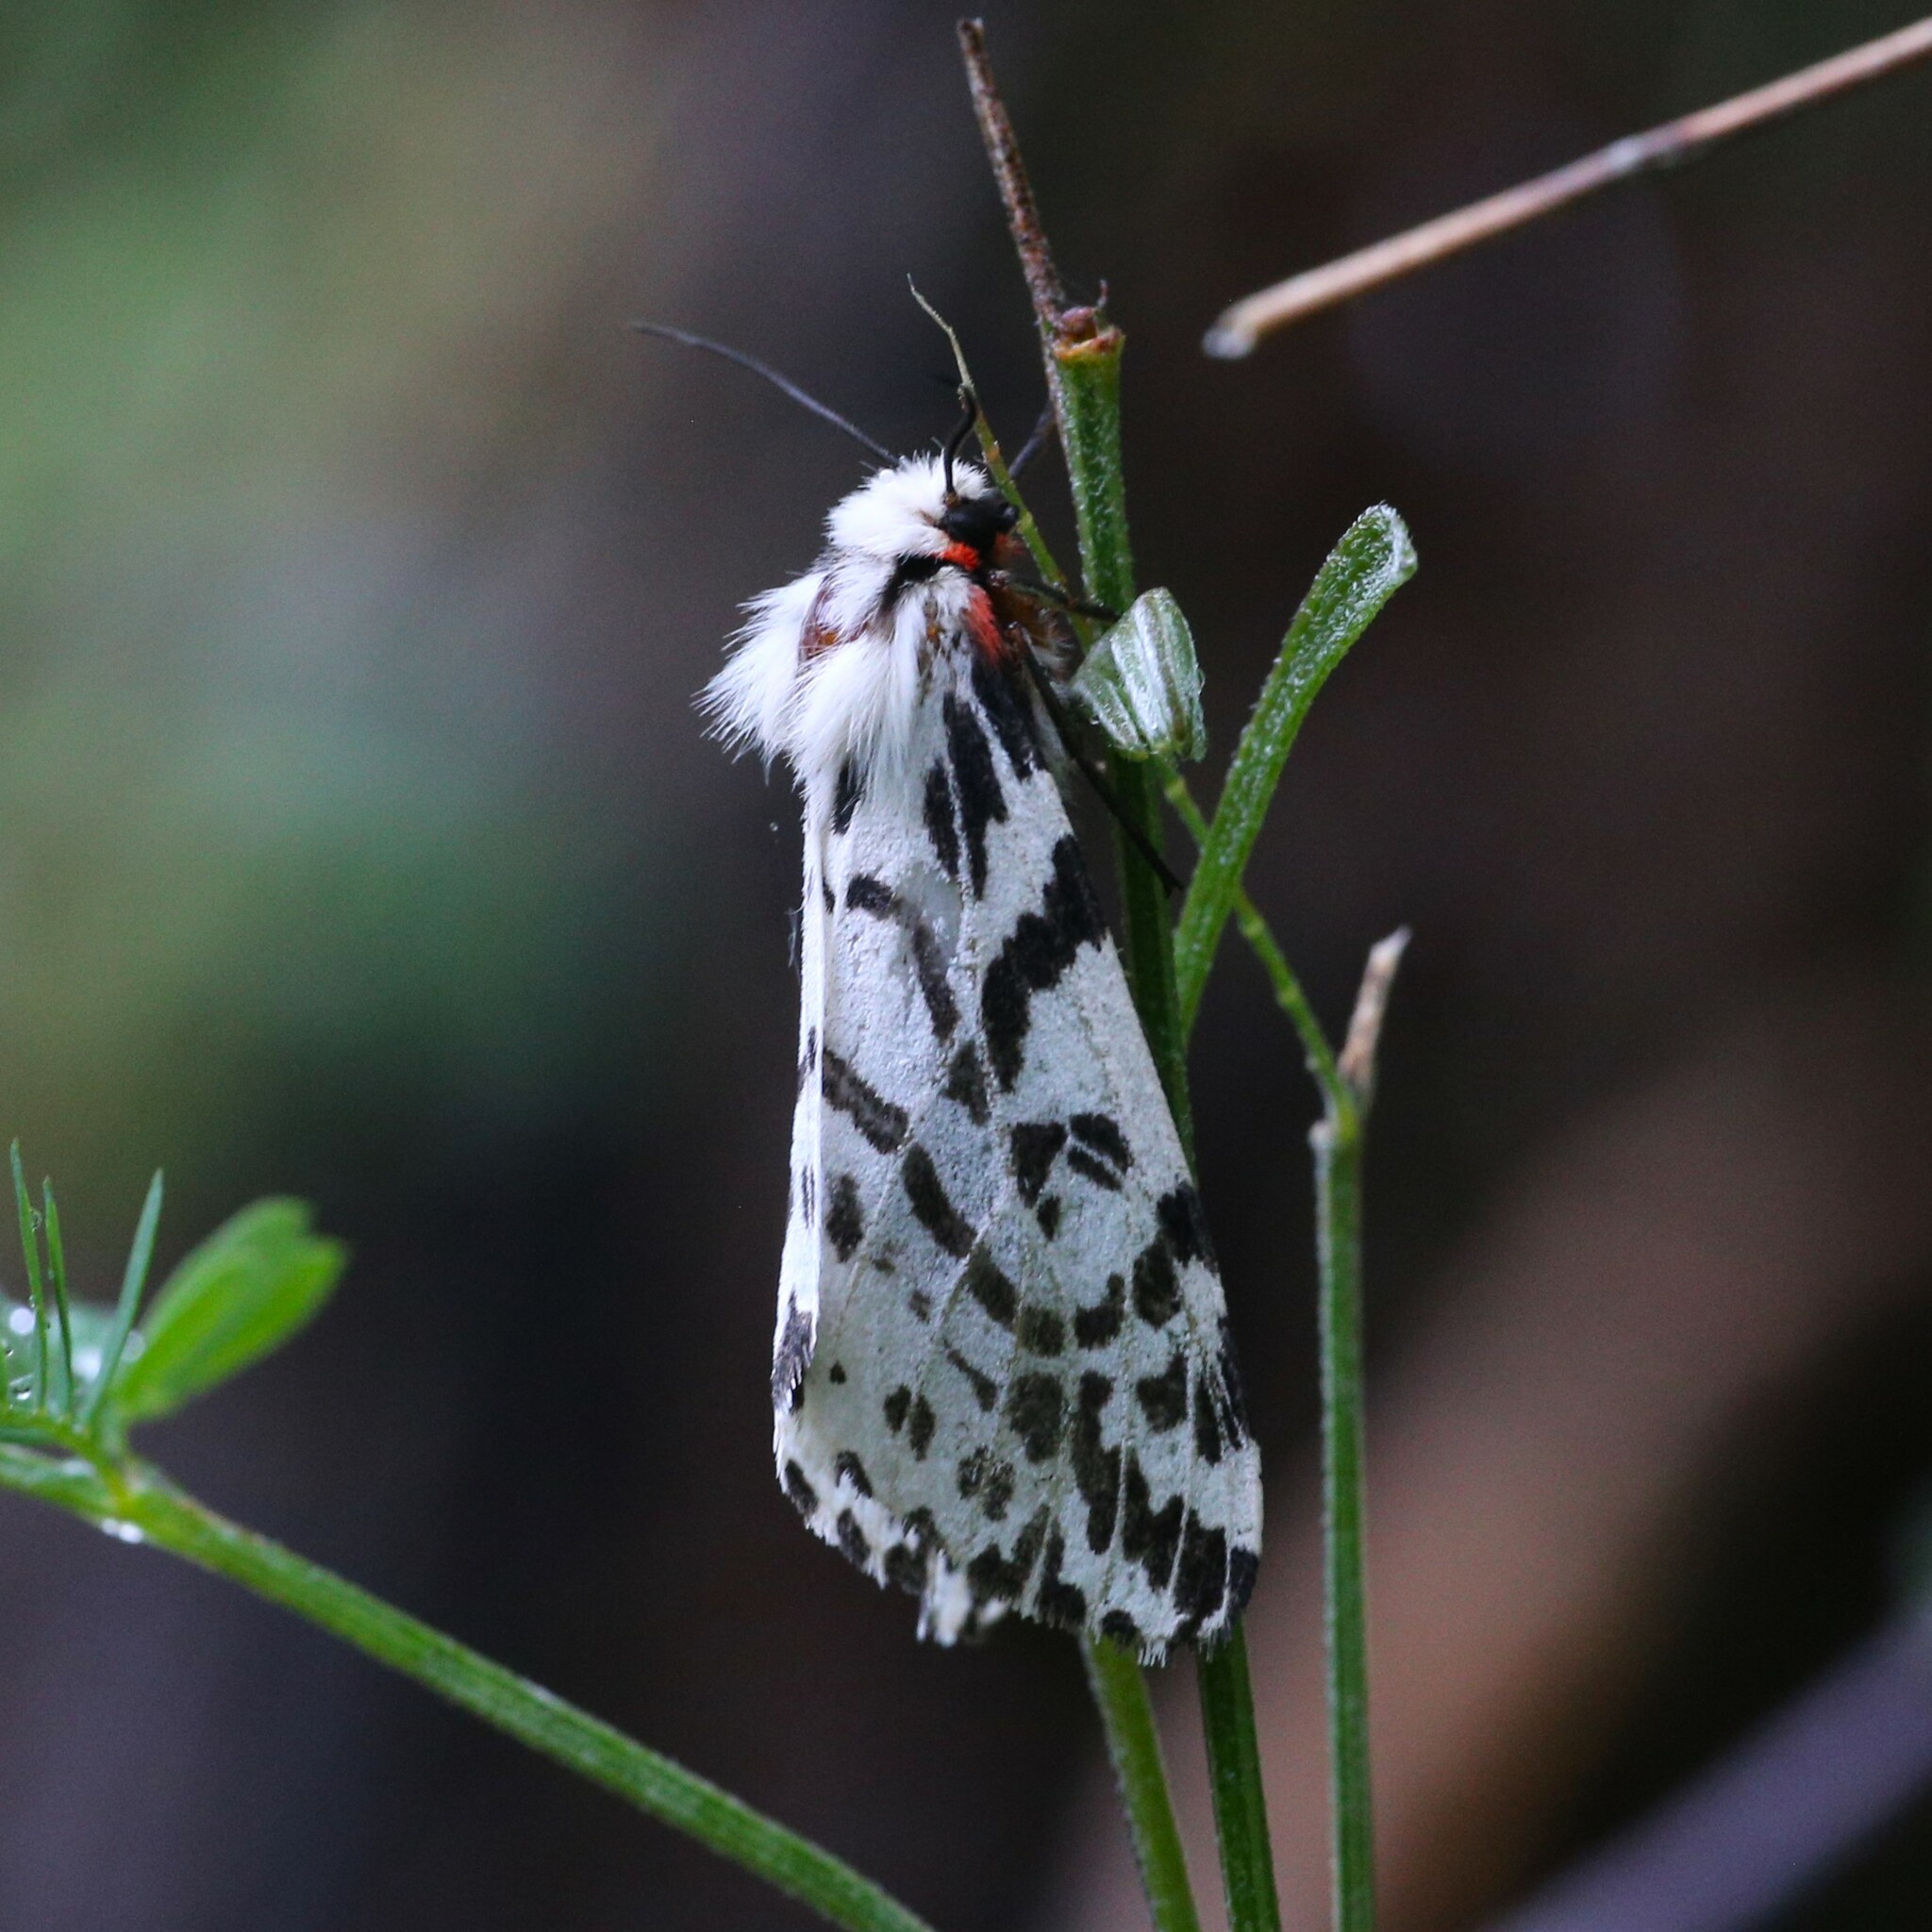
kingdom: Animalia
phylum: Arthropoda
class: Insecta
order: Lepidoptera
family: Erebidae
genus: Ardices
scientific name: Ardices glatignyi
